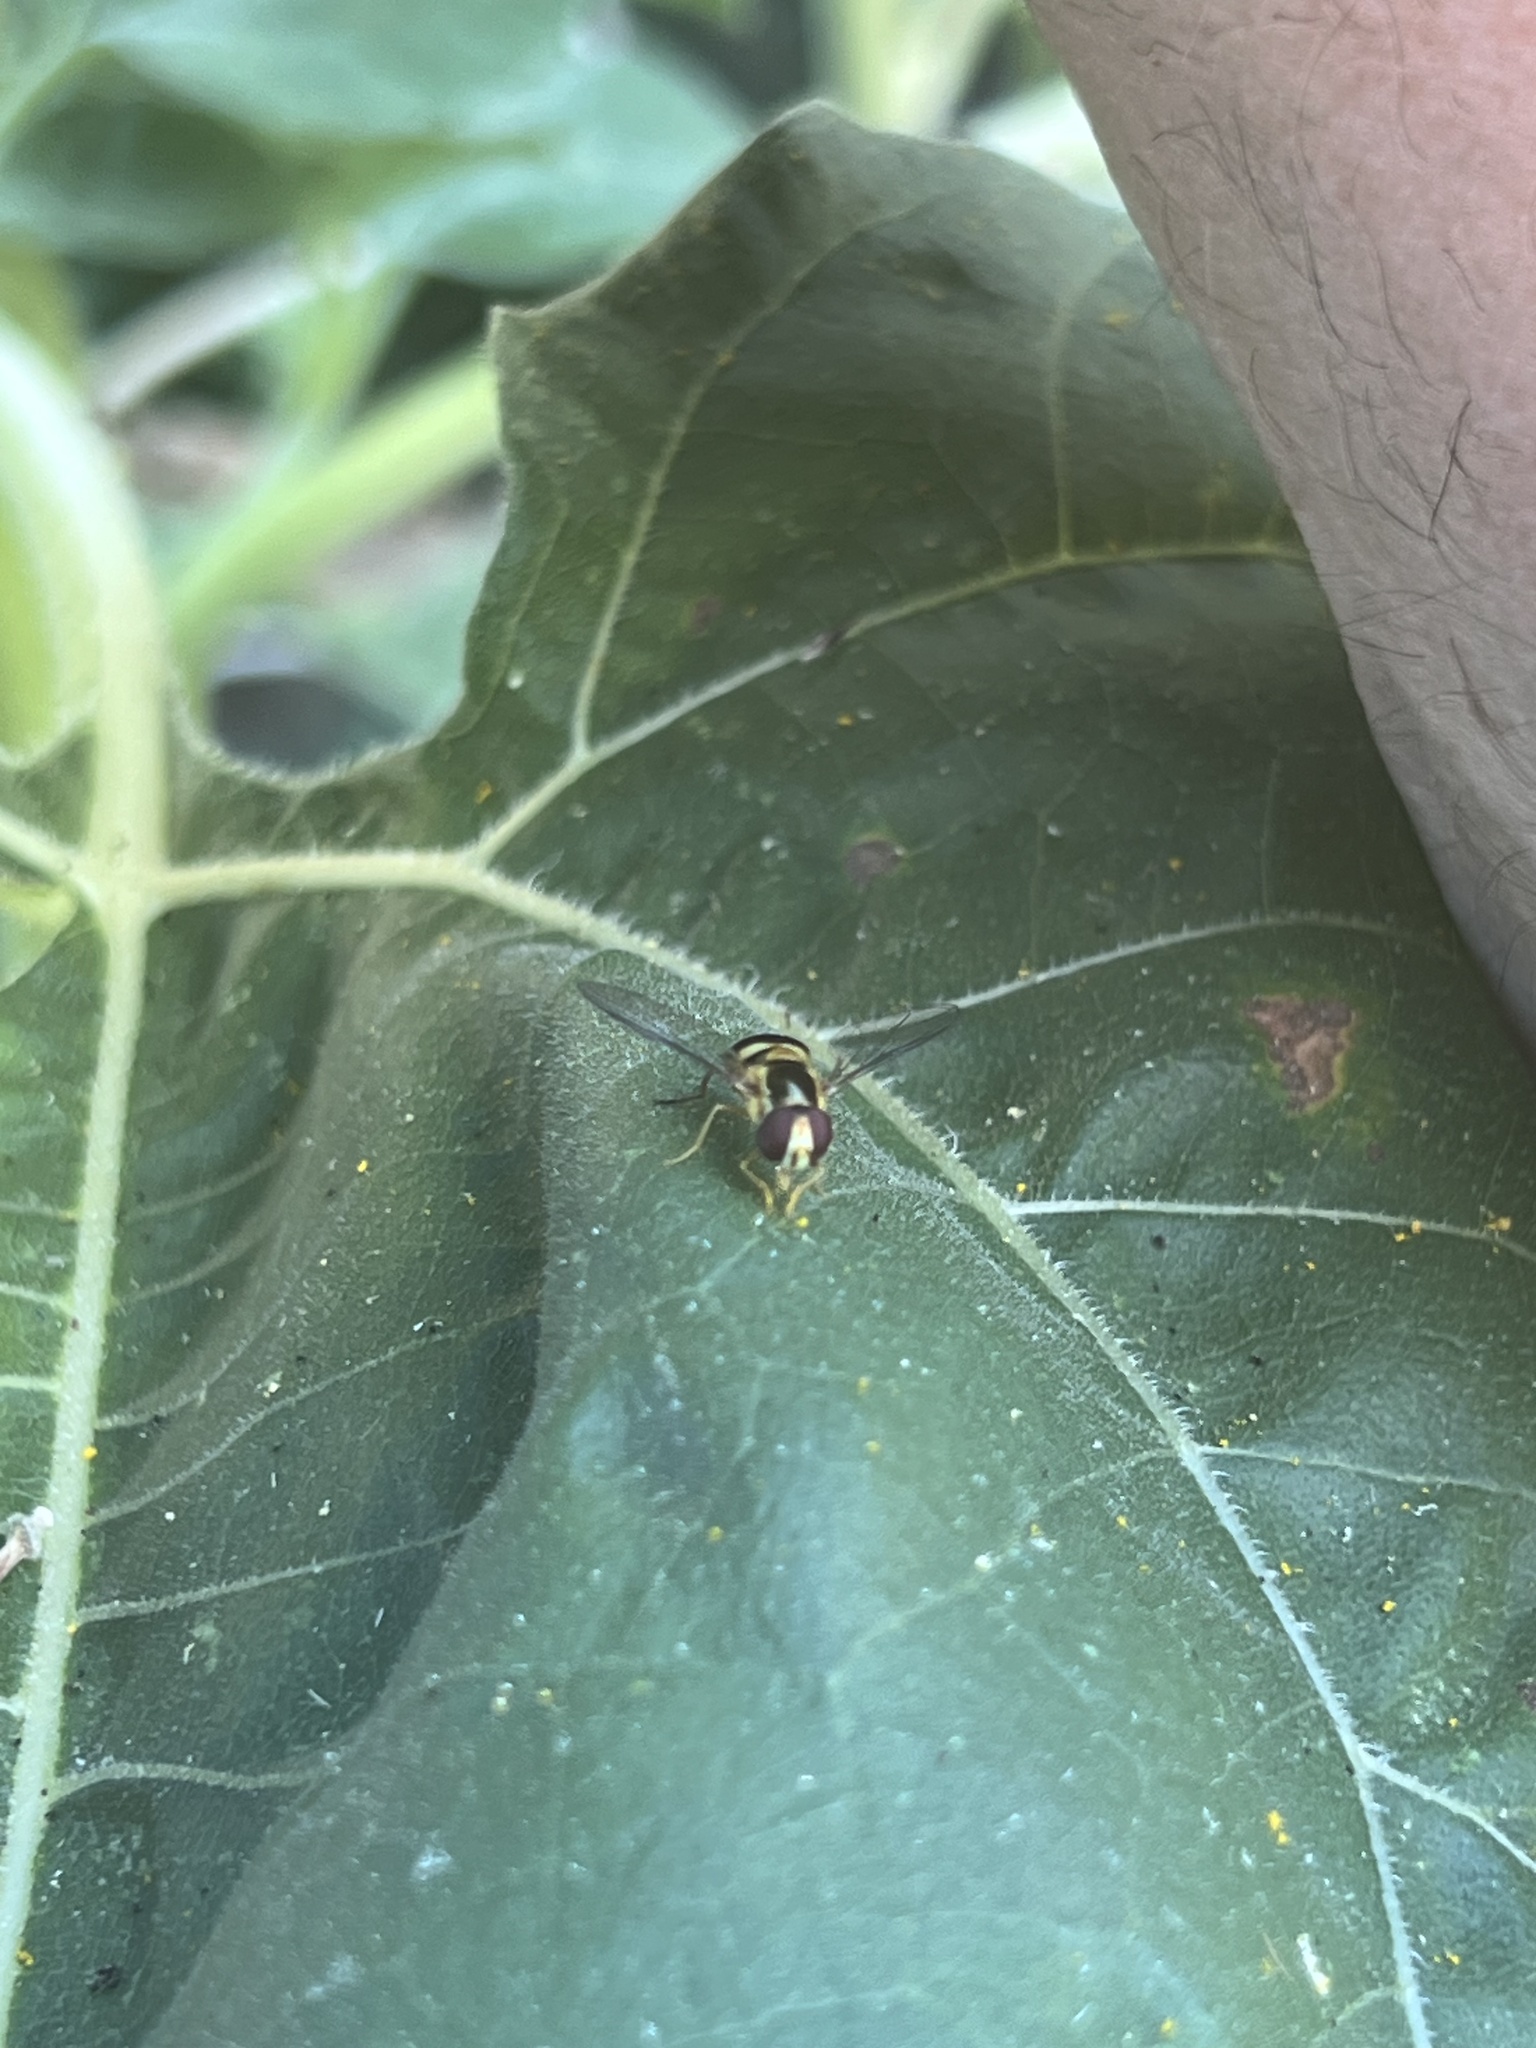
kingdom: Animalia
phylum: Arthropoda
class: Insecta
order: Diptera
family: Syrphidae
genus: Eupeodes
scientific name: Eupeodes
